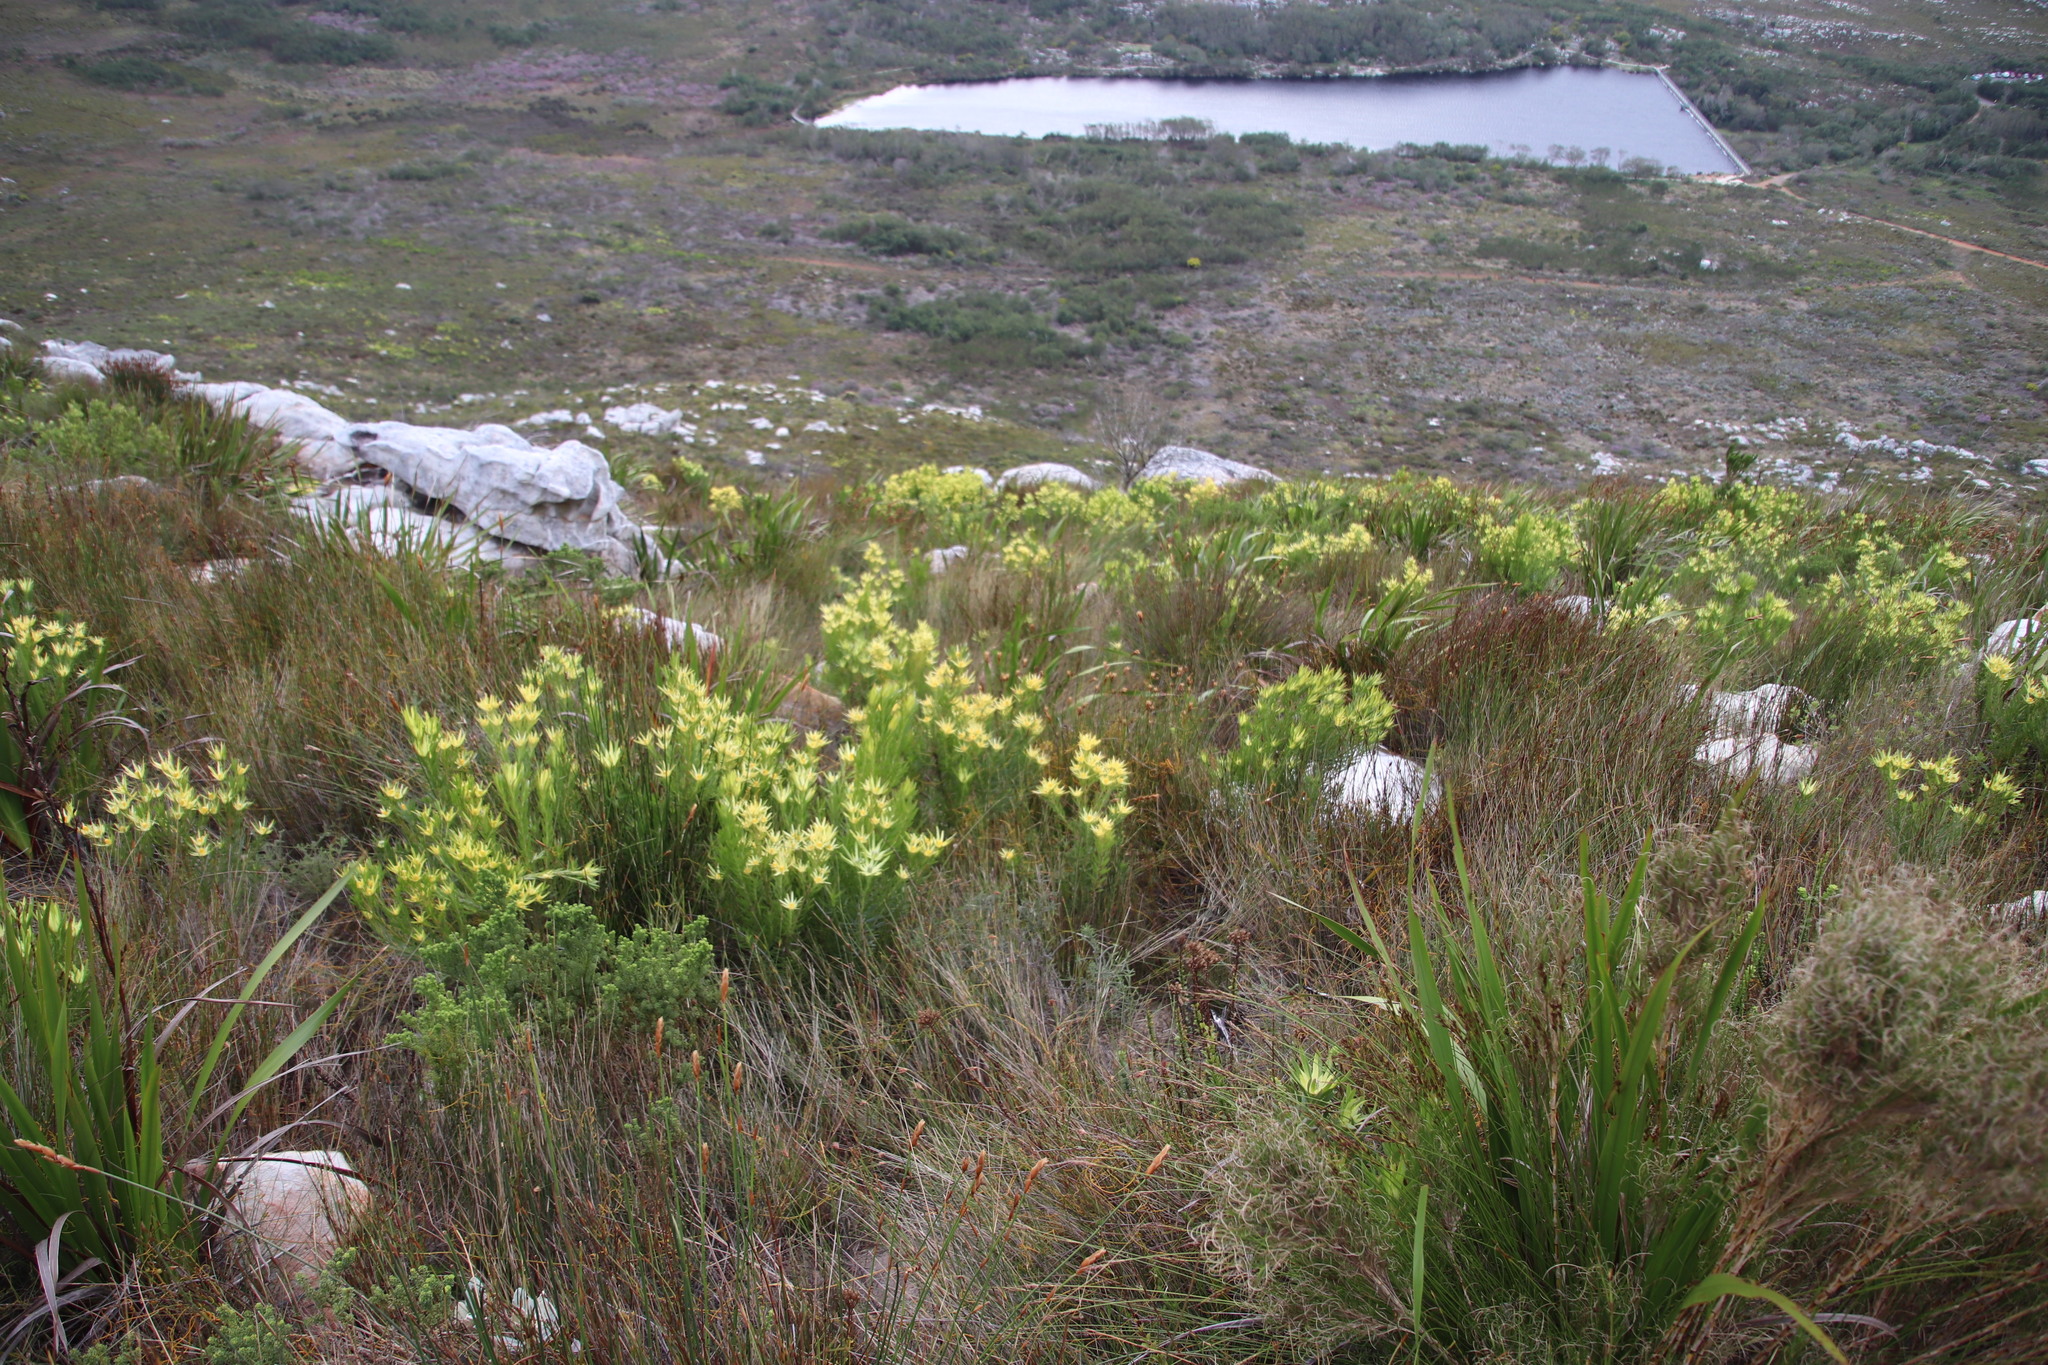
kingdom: Plantae
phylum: Tracheophyta
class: Magnoliopsida
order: Proteales
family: Proteaceae
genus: Leucadendron
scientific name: Leucadendron xanthoconus
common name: Sickle-leaf conebush
